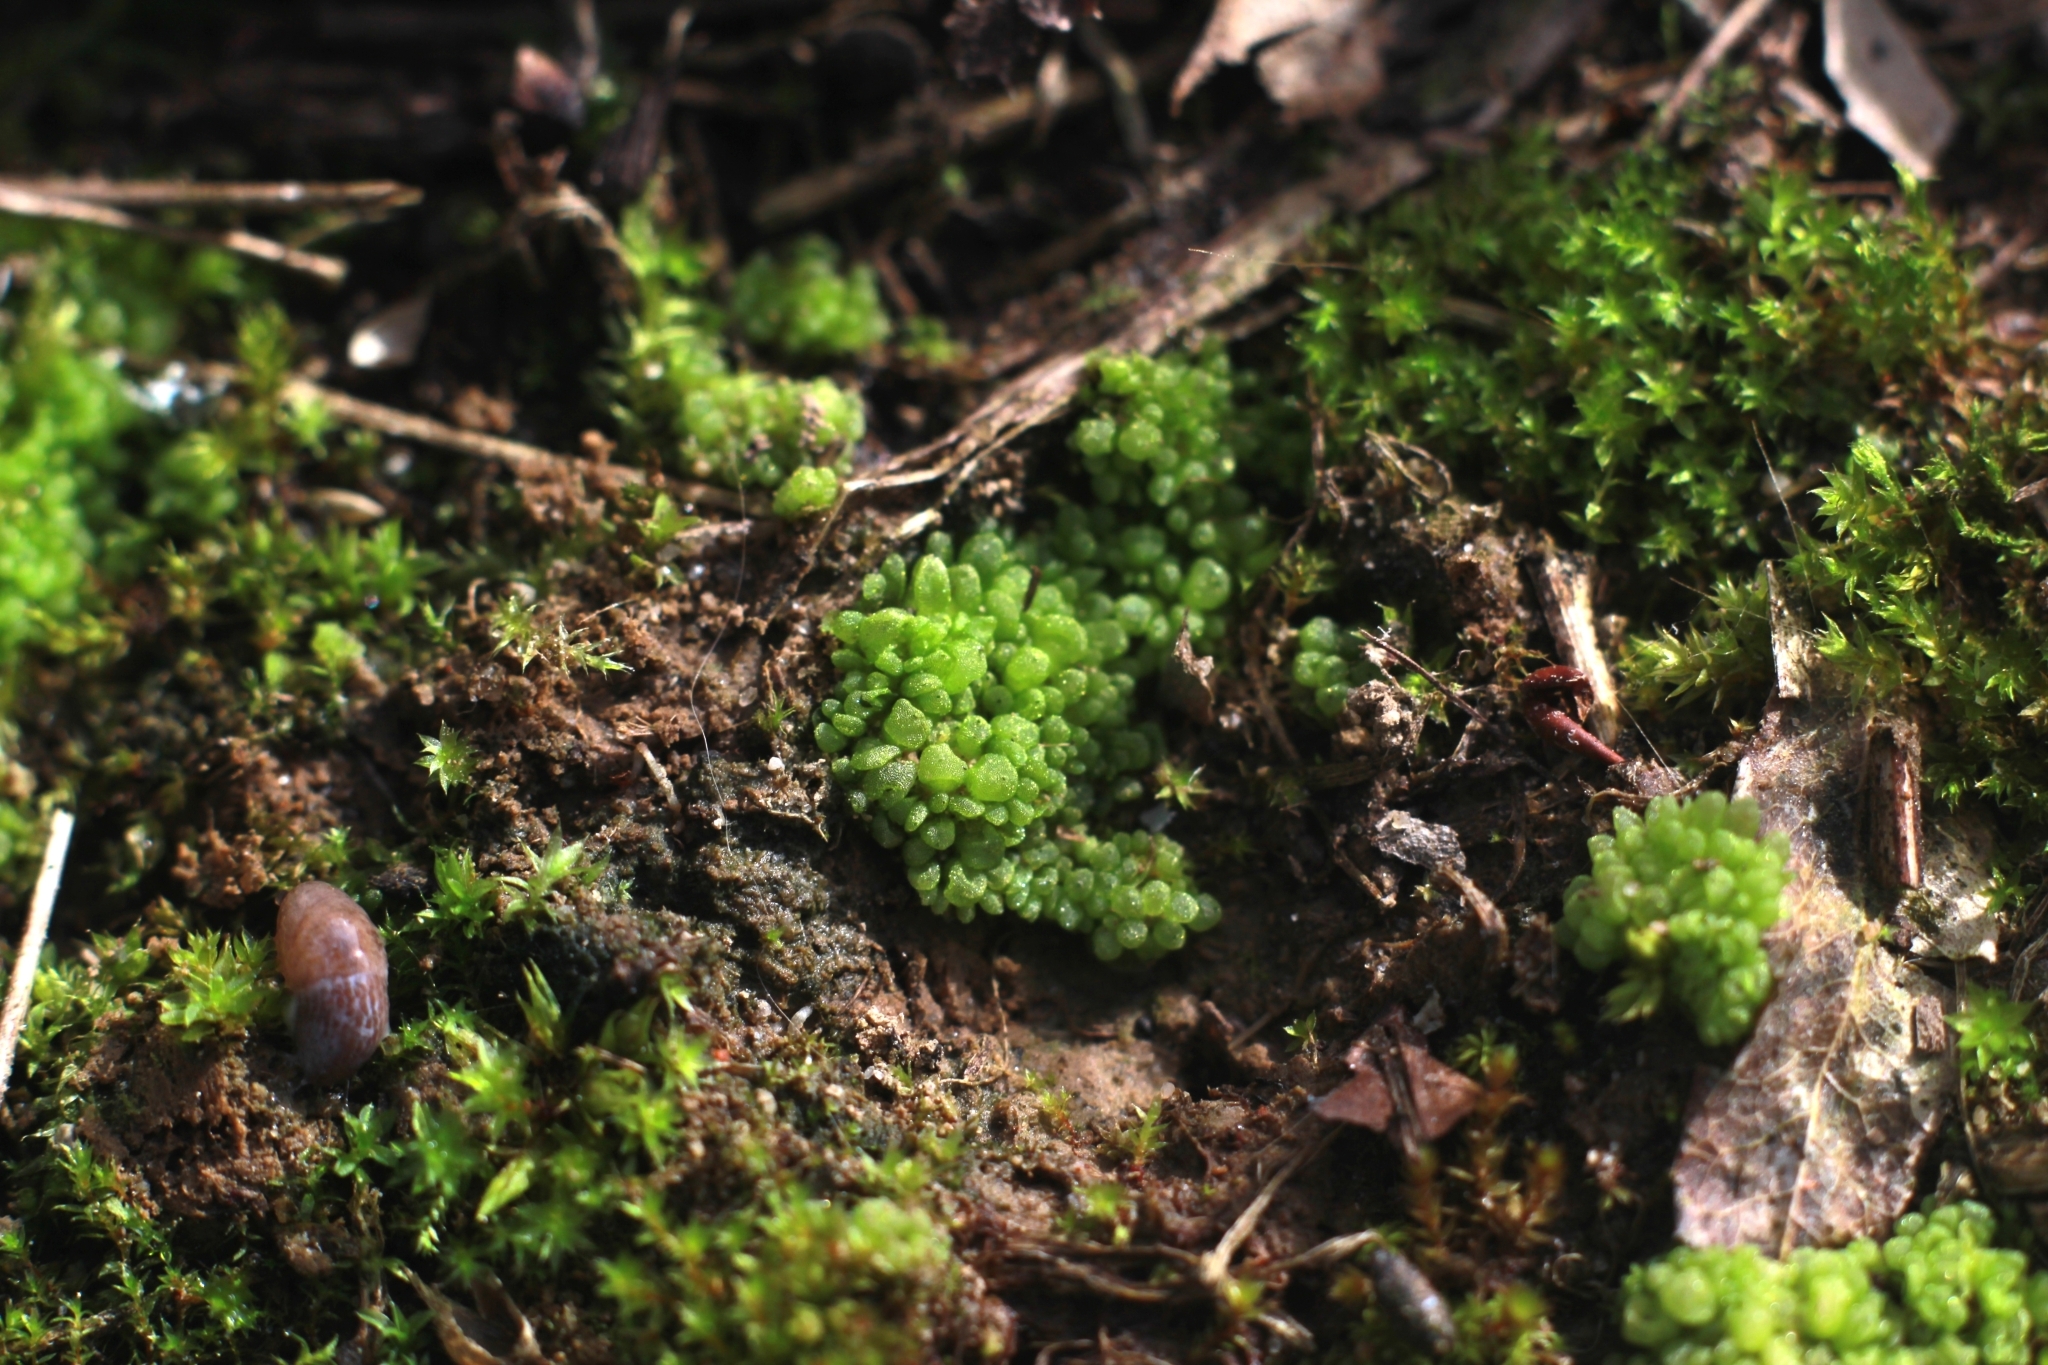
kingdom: Plantae
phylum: Marchantiophyta
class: Marchantiopsida
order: Sphaerocarpales
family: Sphaerocarpaceae
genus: Sphaerocarpos
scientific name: Sphaerocarpos
